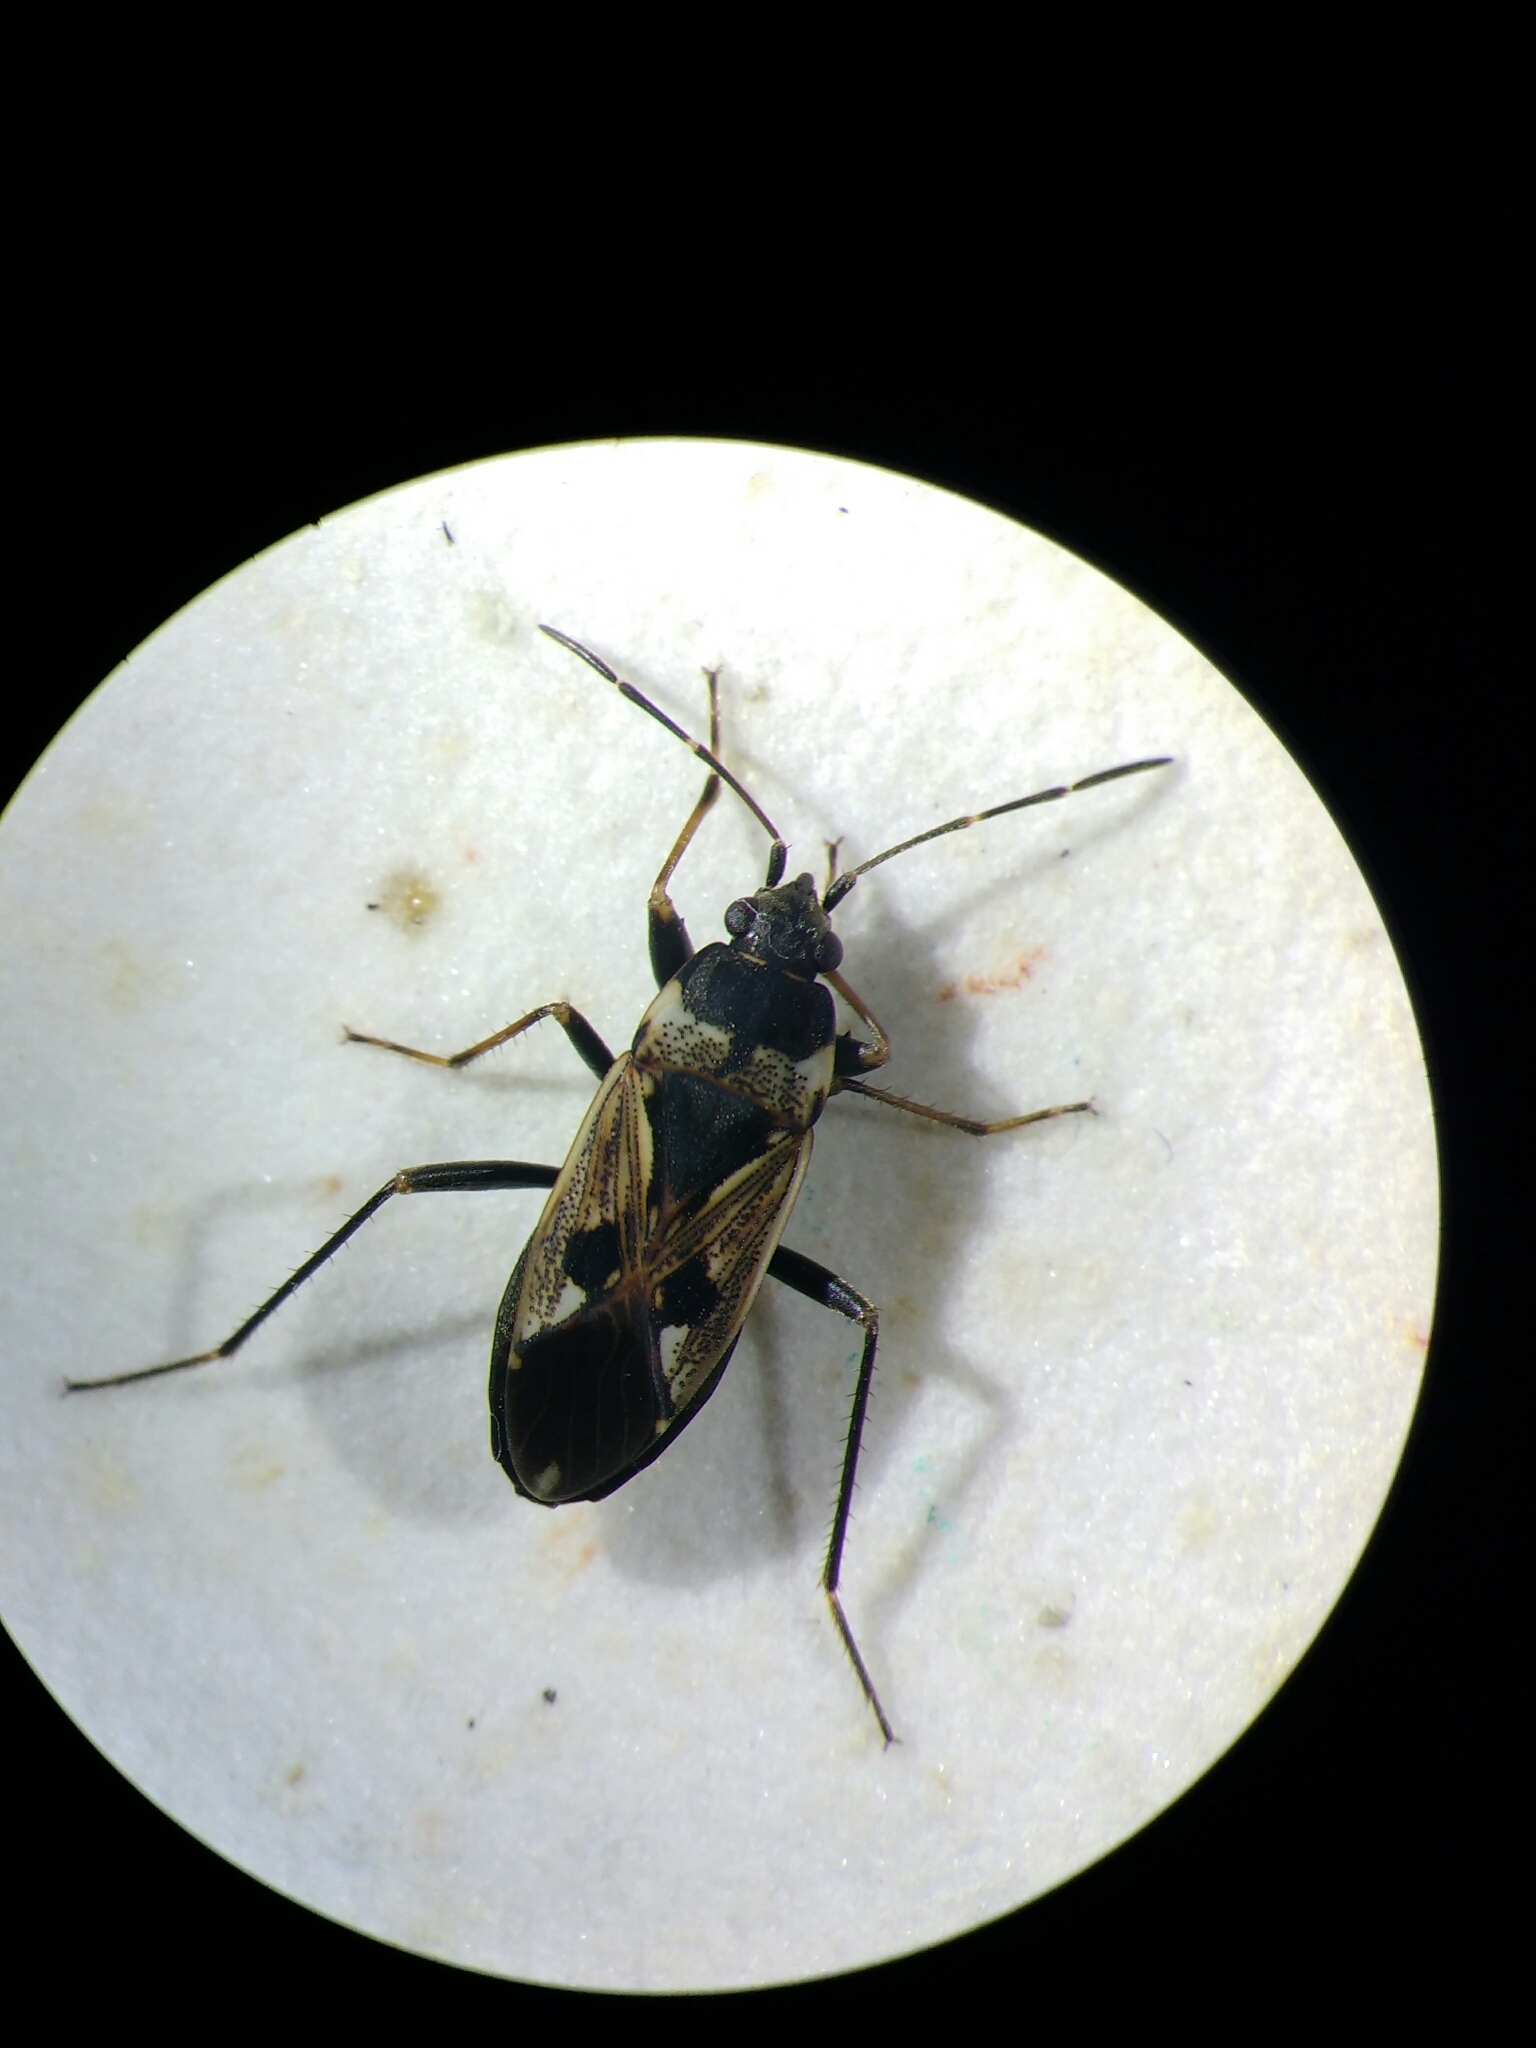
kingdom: Animalia
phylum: Arthropoda
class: Insecta
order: Hemiptera
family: Rhyparochromidae
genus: Rhyparochromus
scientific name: Rhyparochromus vulgaris
